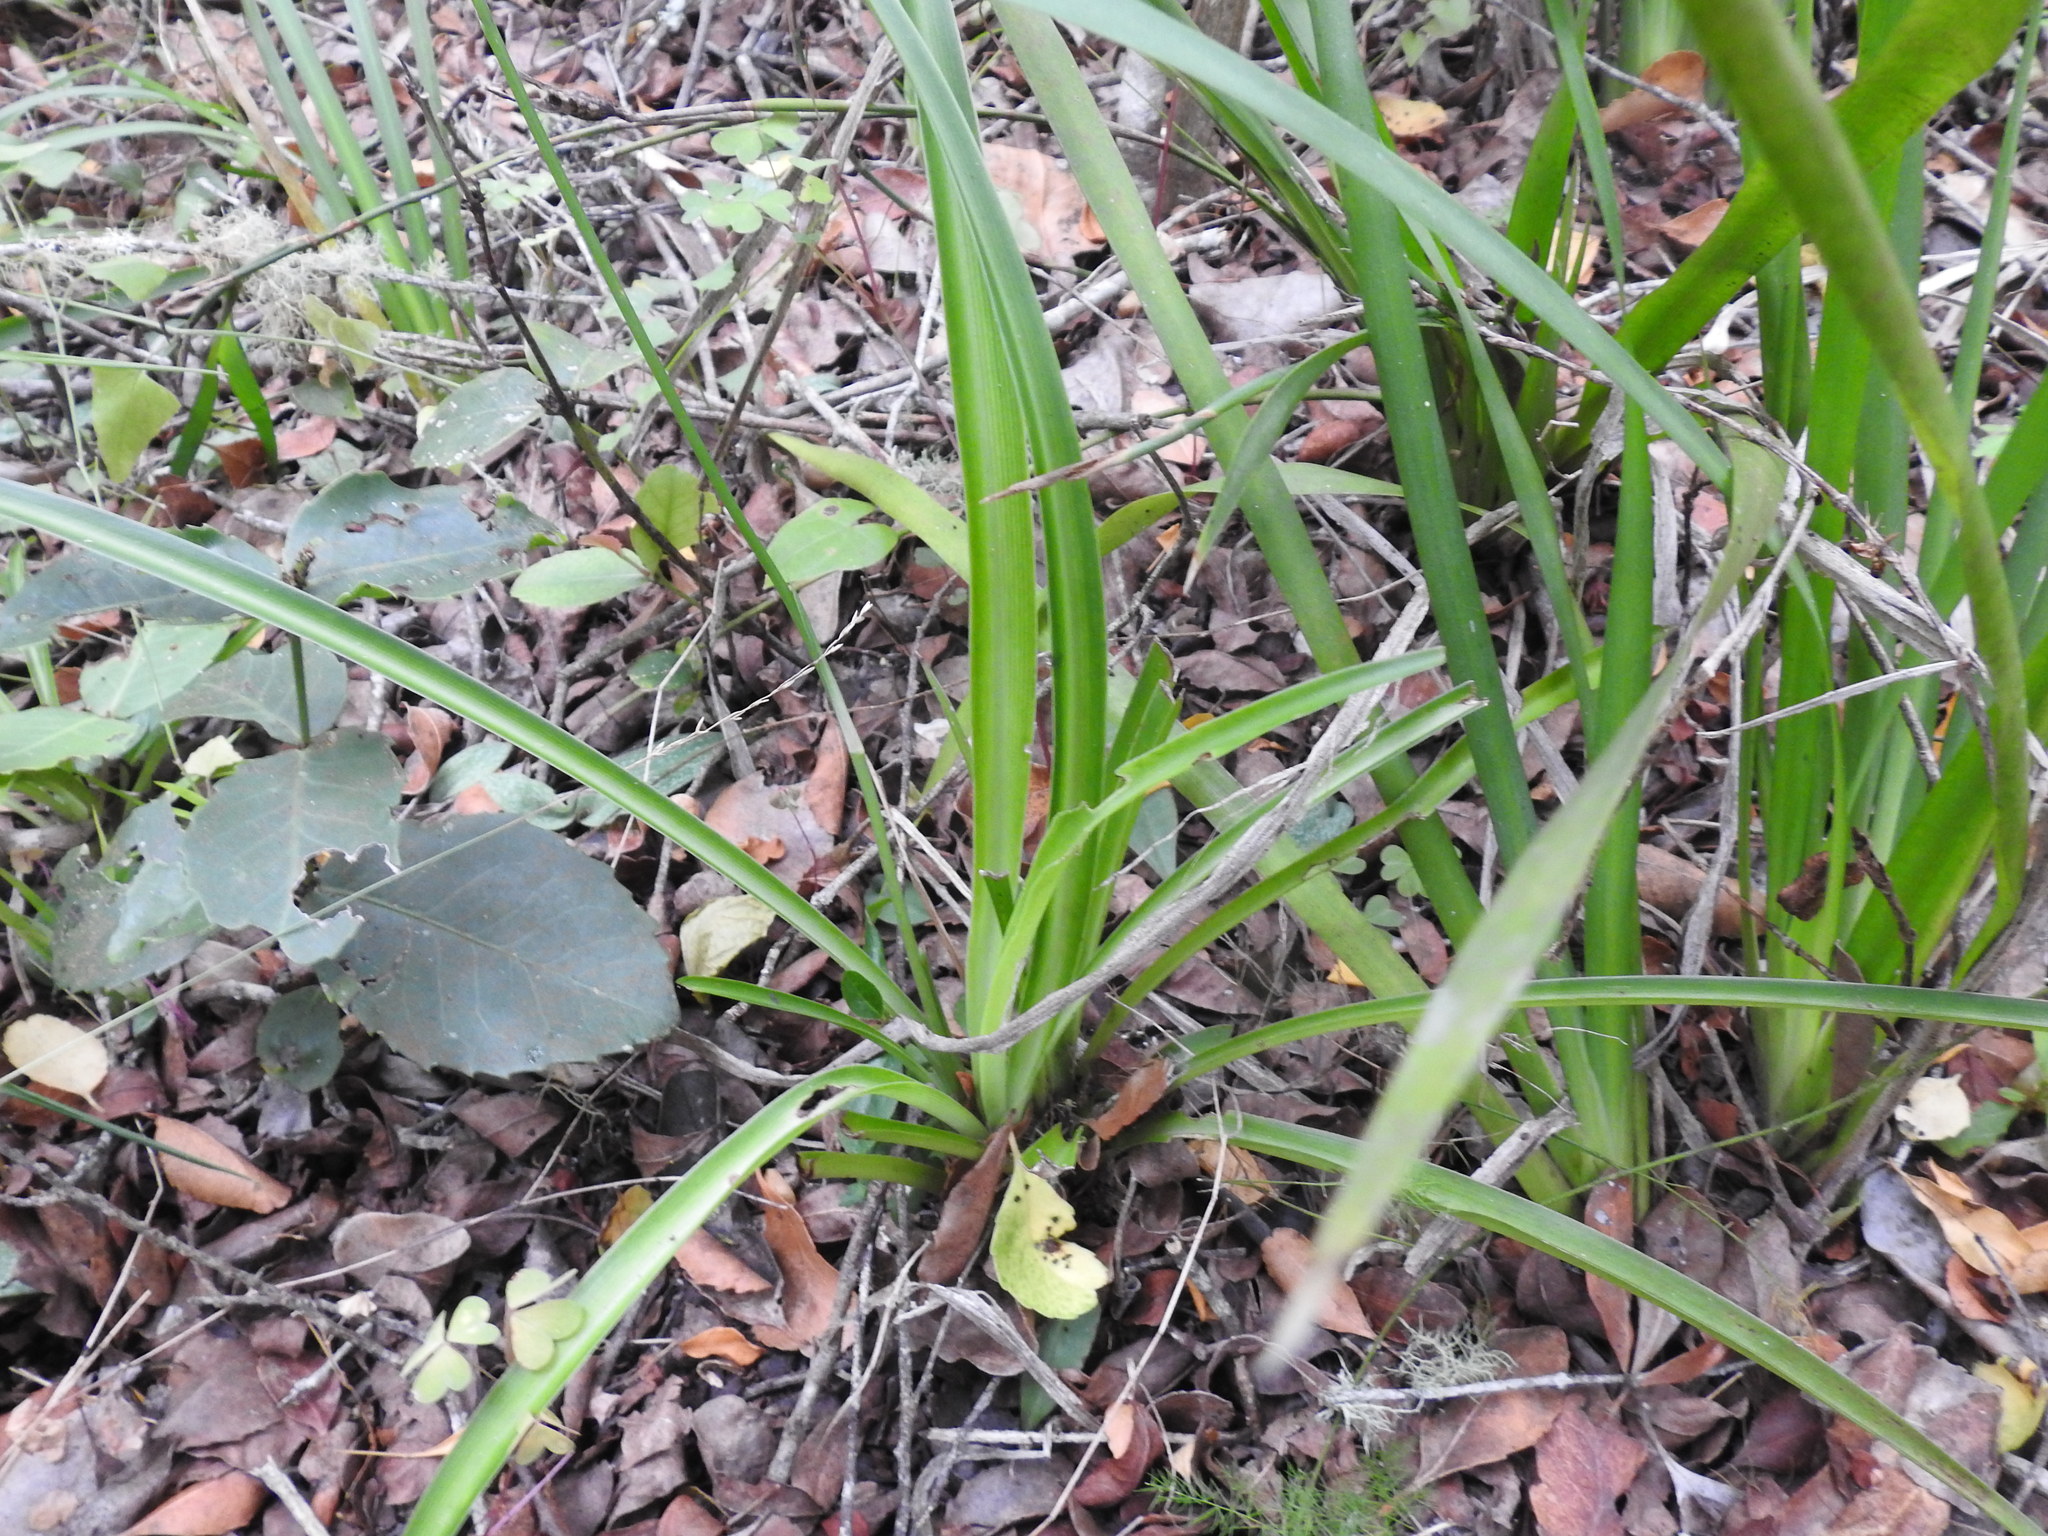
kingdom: Plantae
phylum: Tracheophyta
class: Liliopsida
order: Asparagales
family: Asparagaceae
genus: Chlorophytum
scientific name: Chlorophytum comosum
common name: Spider plant
